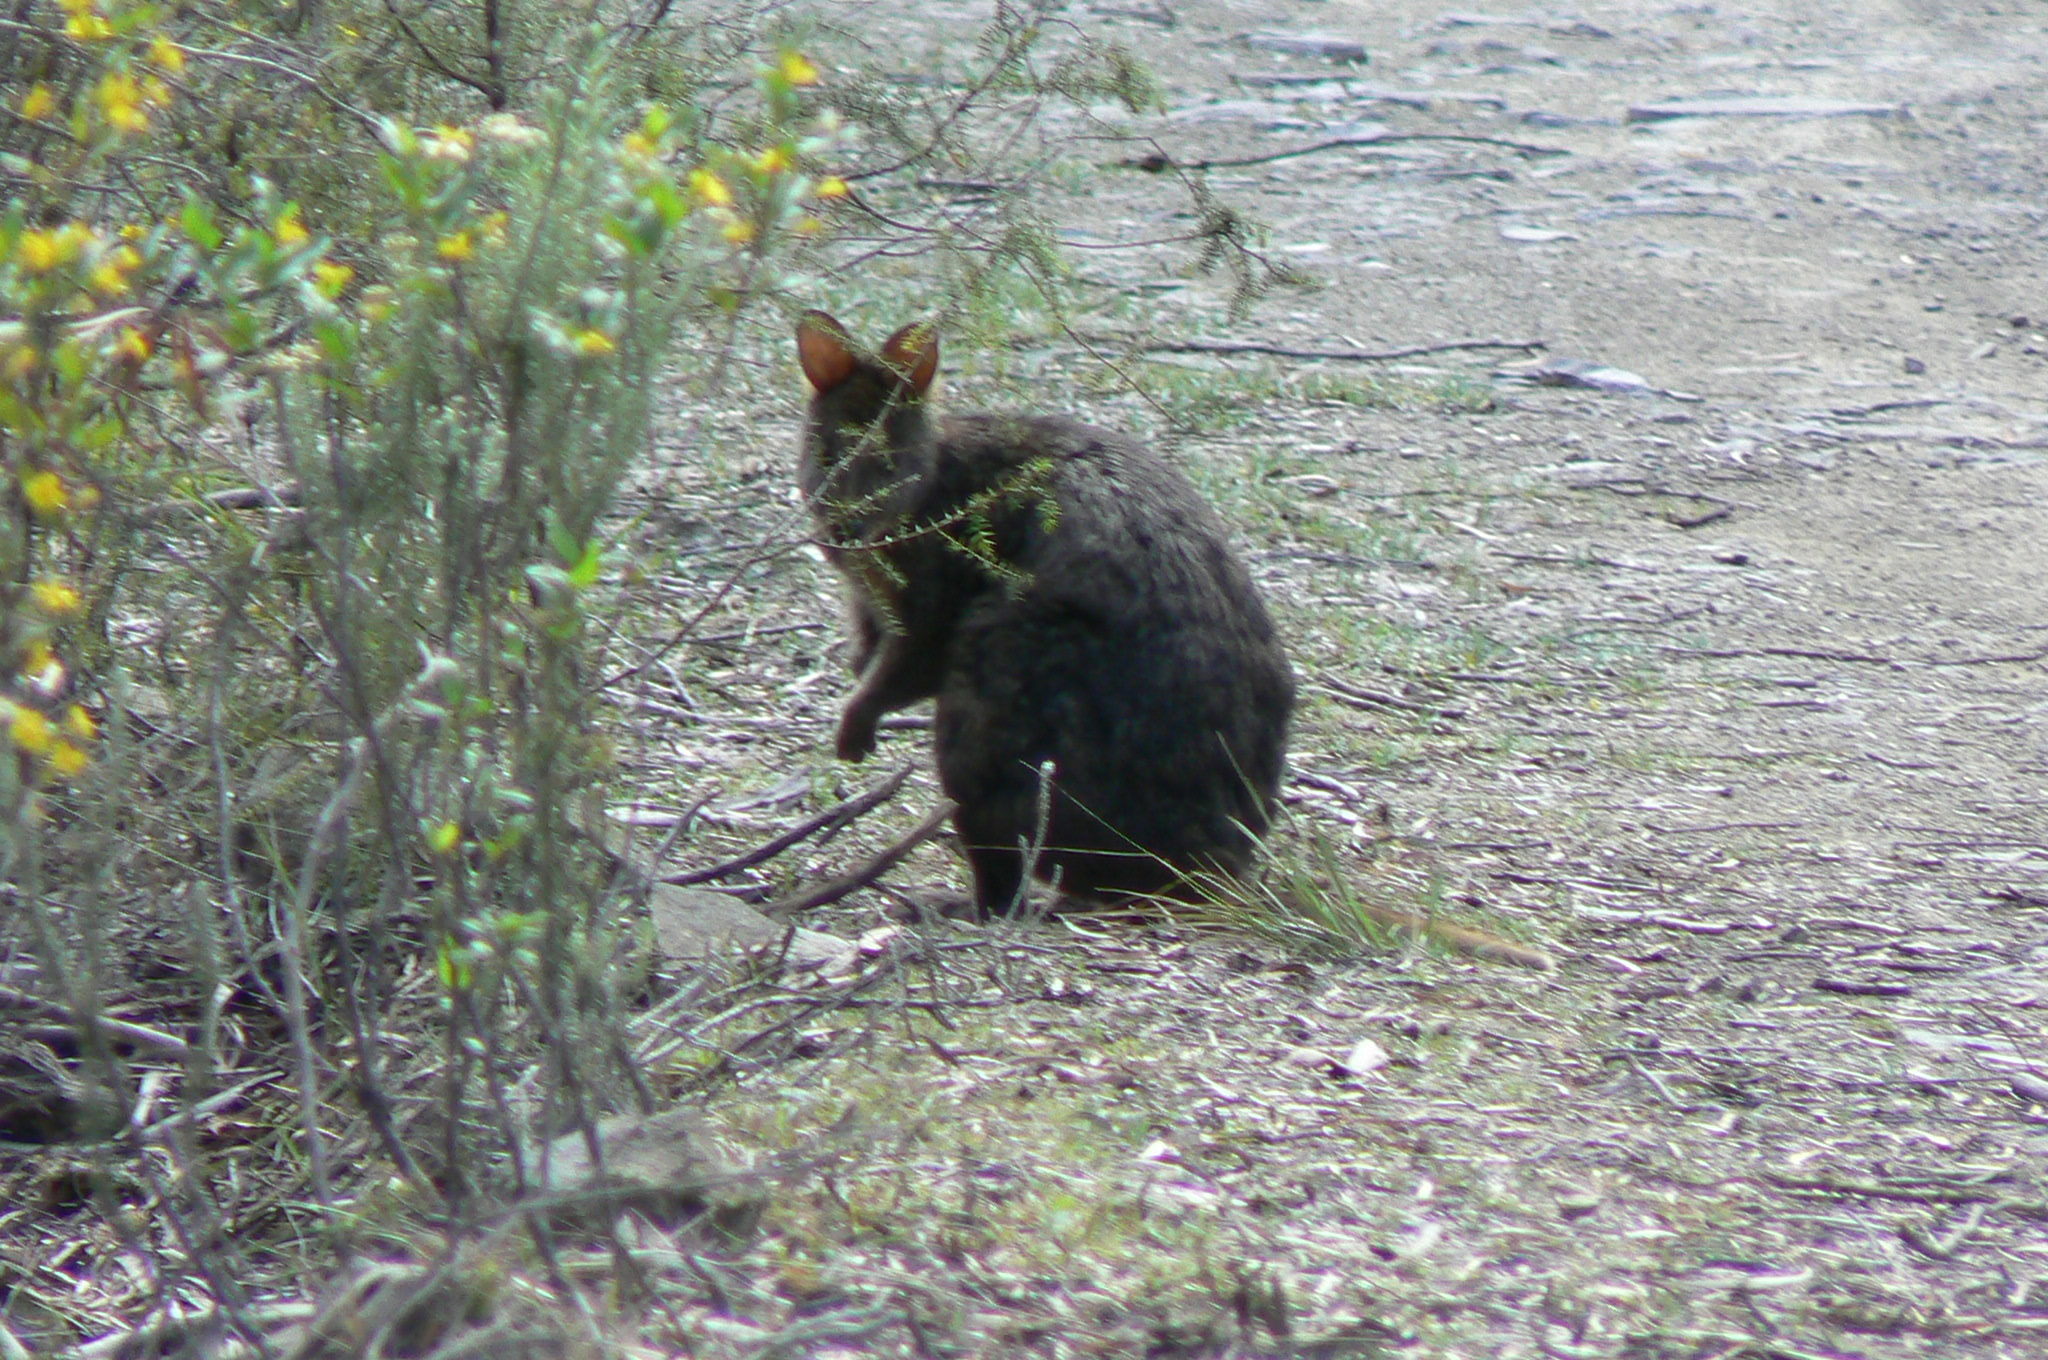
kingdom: Animalia
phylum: Chordata
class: Mammalia
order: Diprotodontia
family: Macropodidae
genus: Thylogale
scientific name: Thylogale billardierii
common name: Tasmanian pademelon
